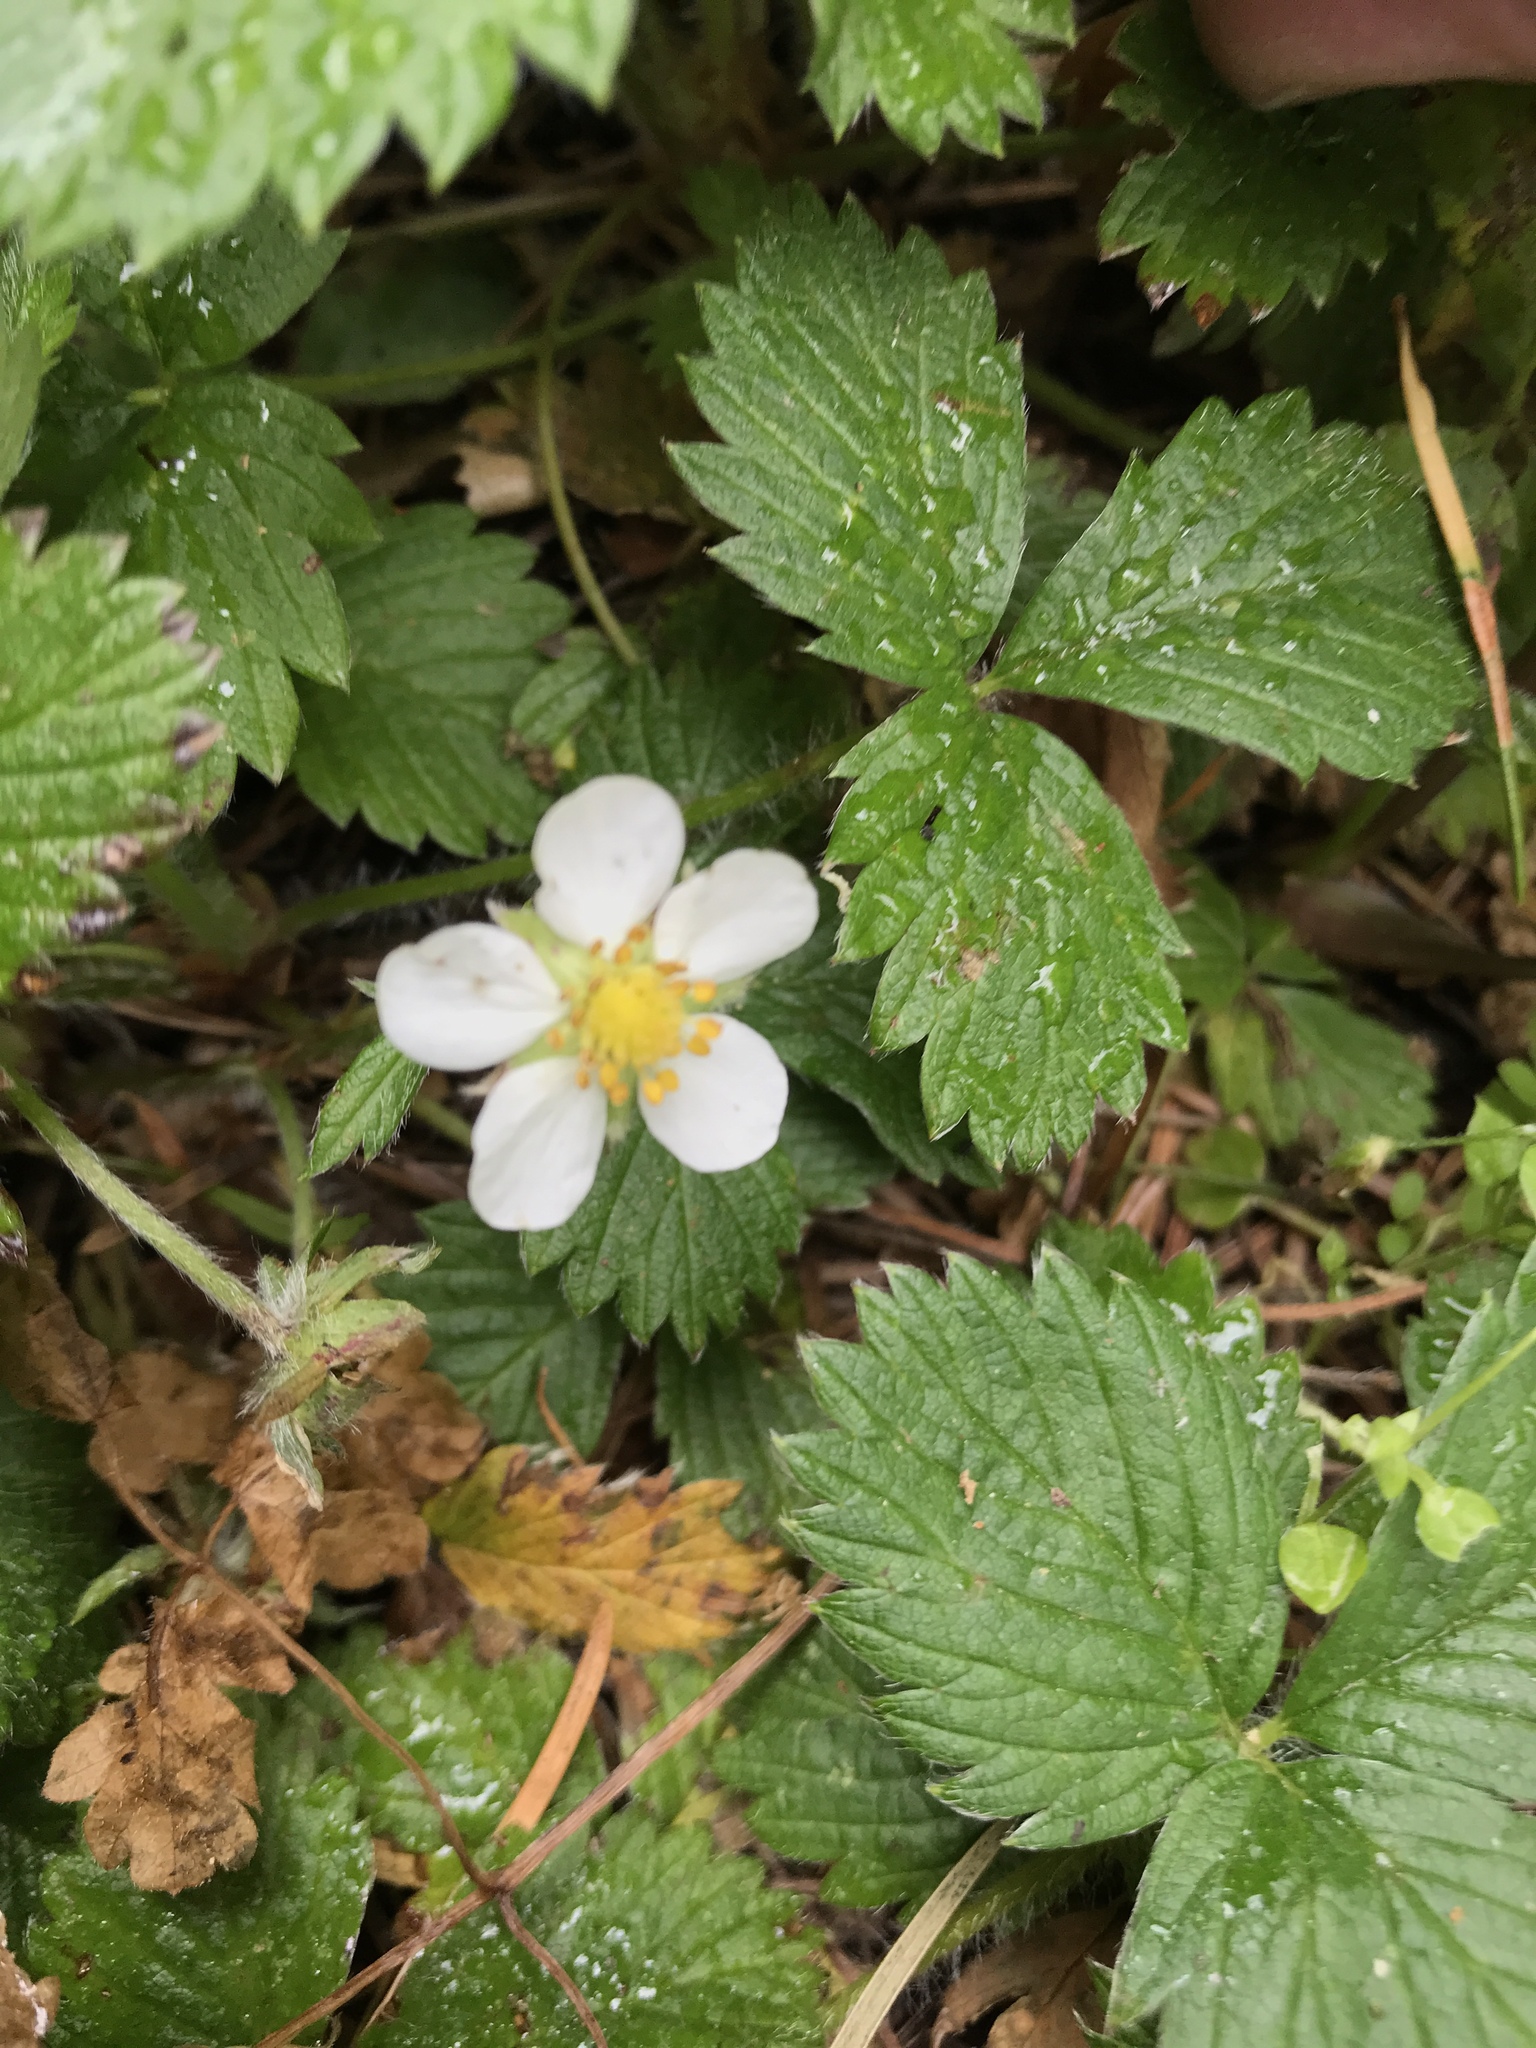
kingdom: Plantae
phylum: Tracheophyta
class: Magnoliopsida
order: Rosales
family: Rosaceae
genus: Fragaria
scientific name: Fragaria vesca
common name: Wild strawberry
